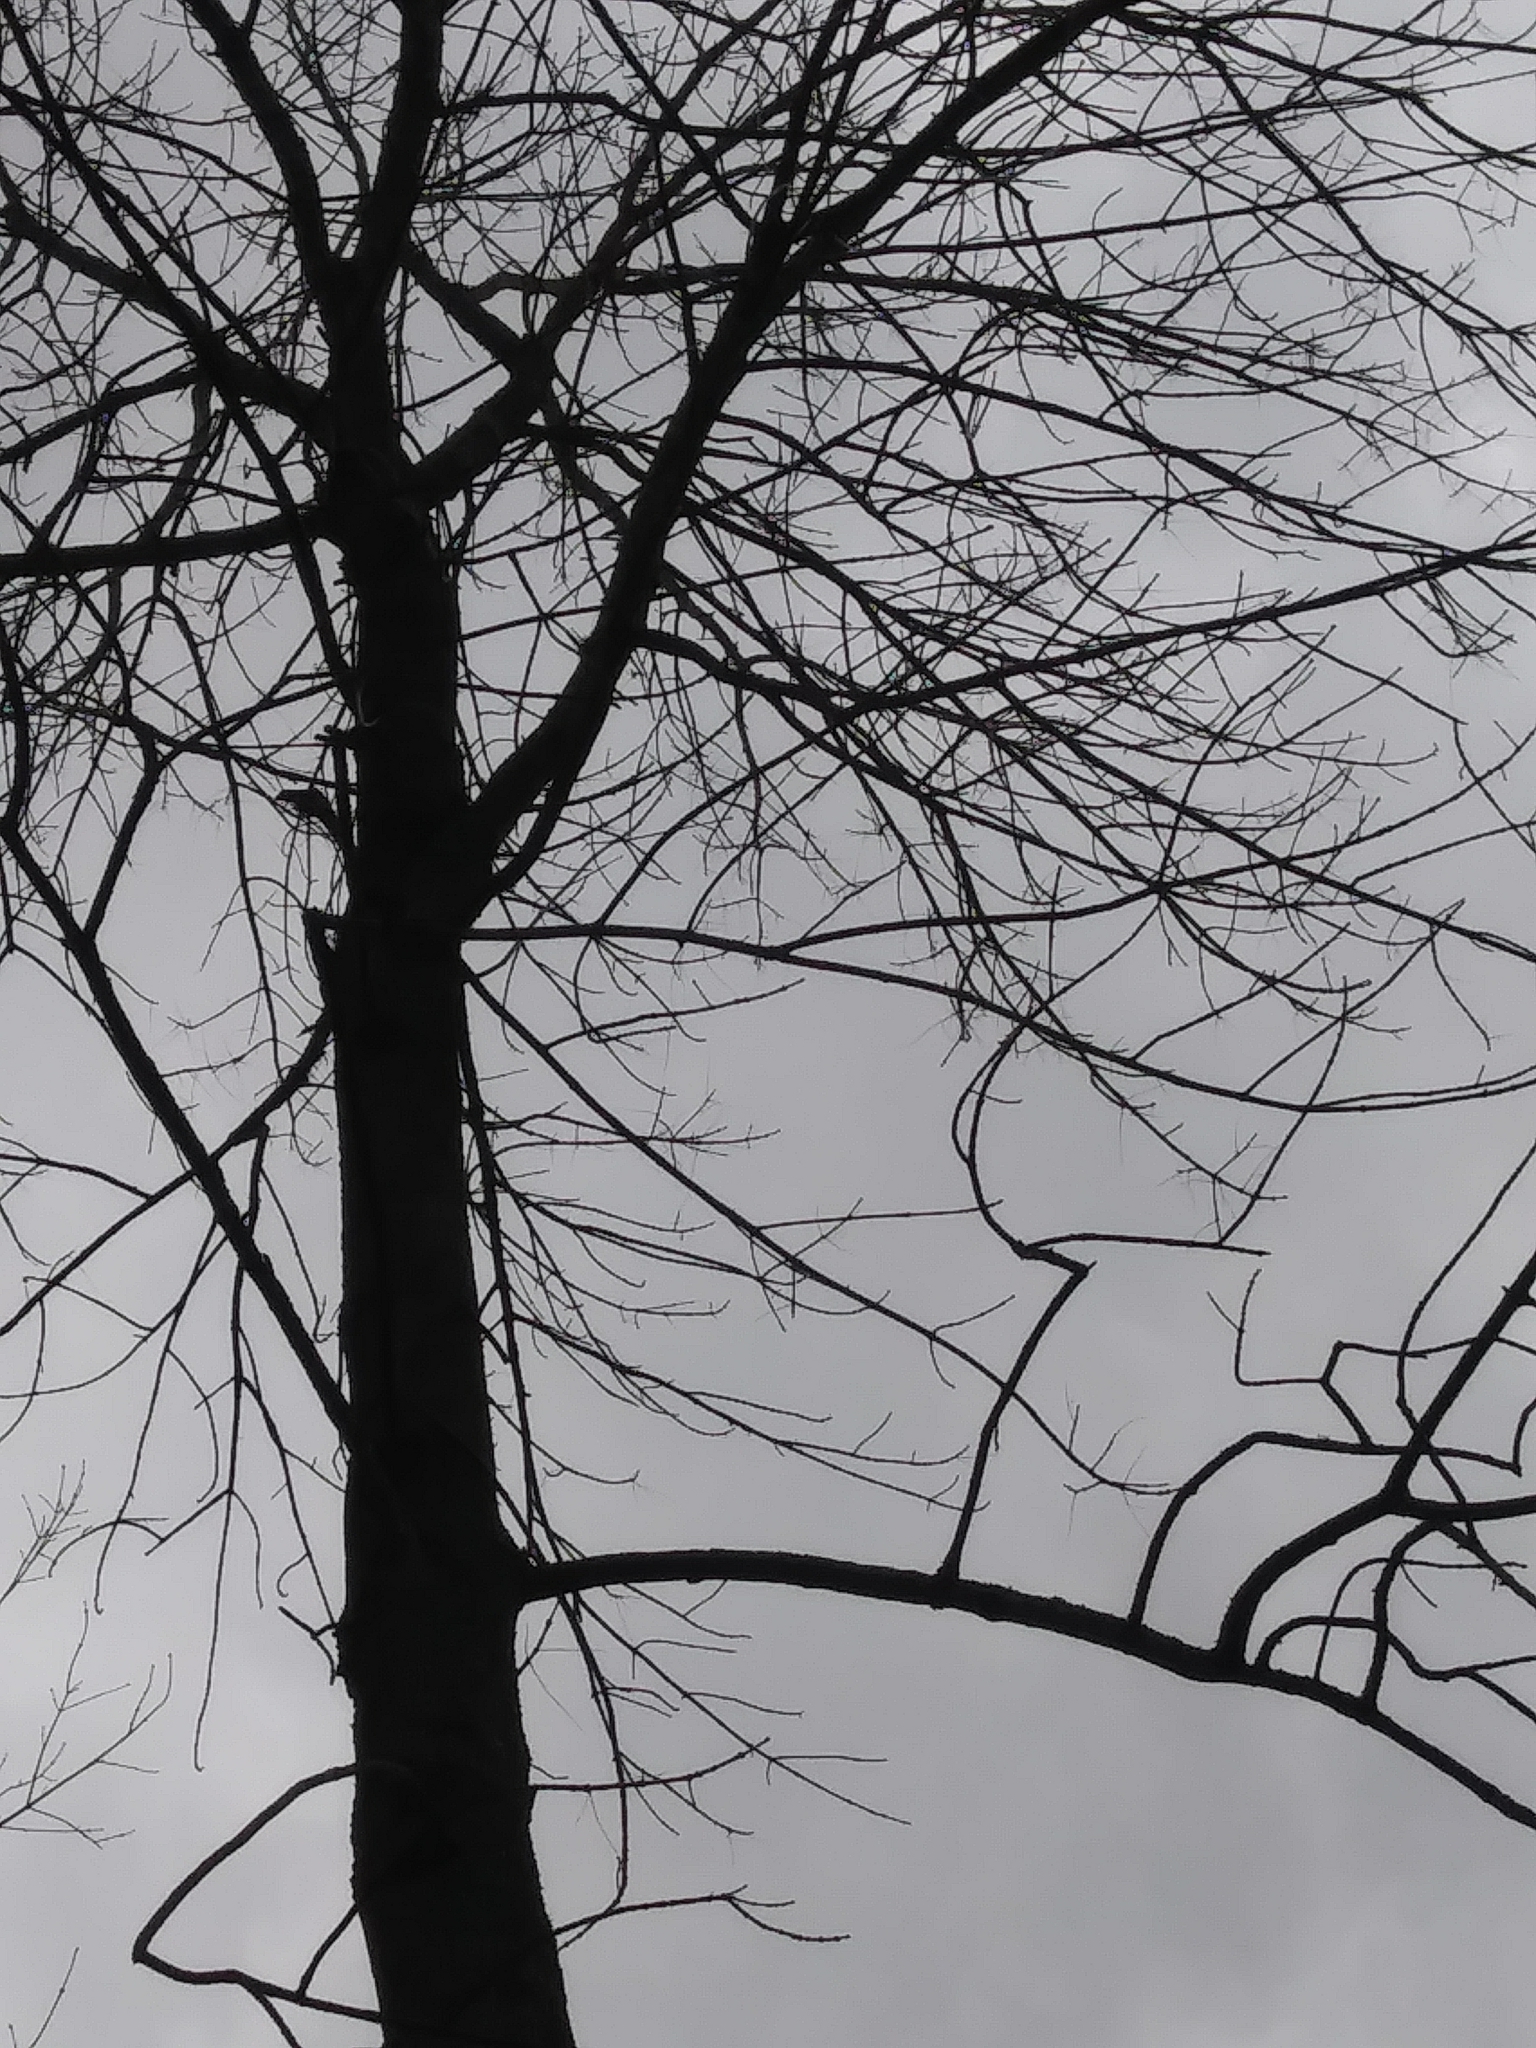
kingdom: Plantae
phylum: Tracheophyta
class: Magnoliopsida
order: Lamiales
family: Oleaceae
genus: Fraxinus
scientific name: Fraxinus americana
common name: White ash
